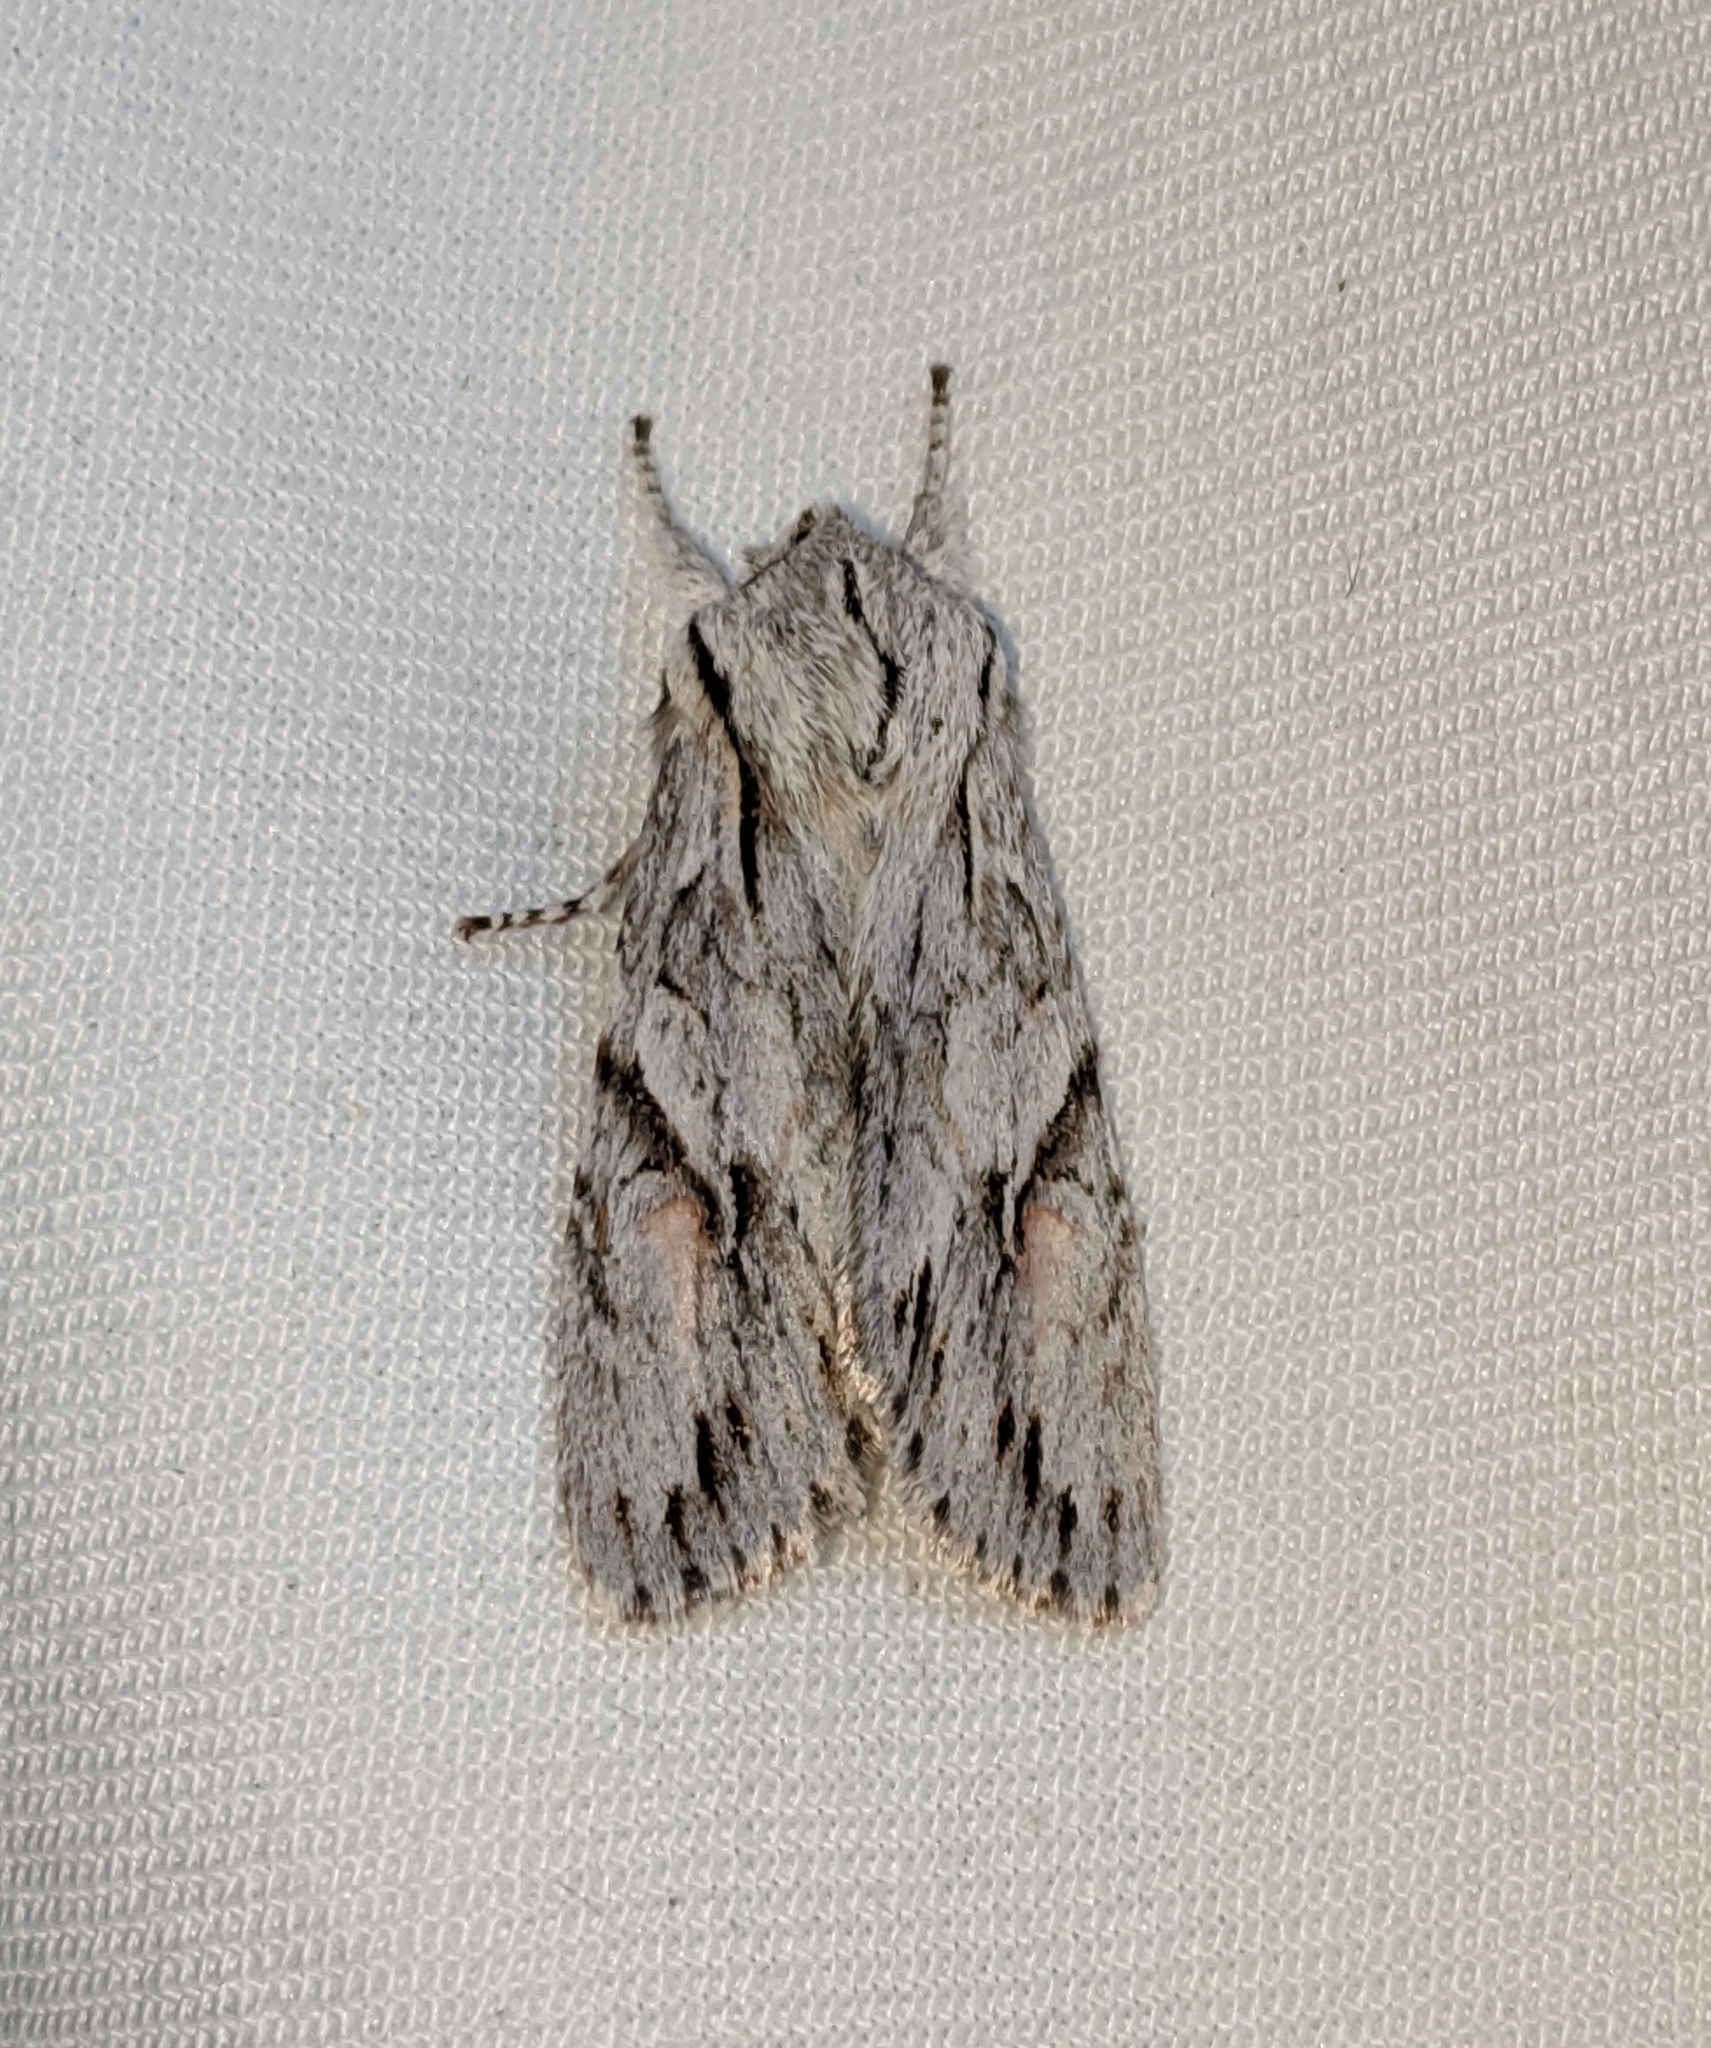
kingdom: Animalia
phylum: Arthropoda
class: Insecta
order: Lepidoptera
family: Noctuidae
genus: Egira
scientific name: Egira crucialis
